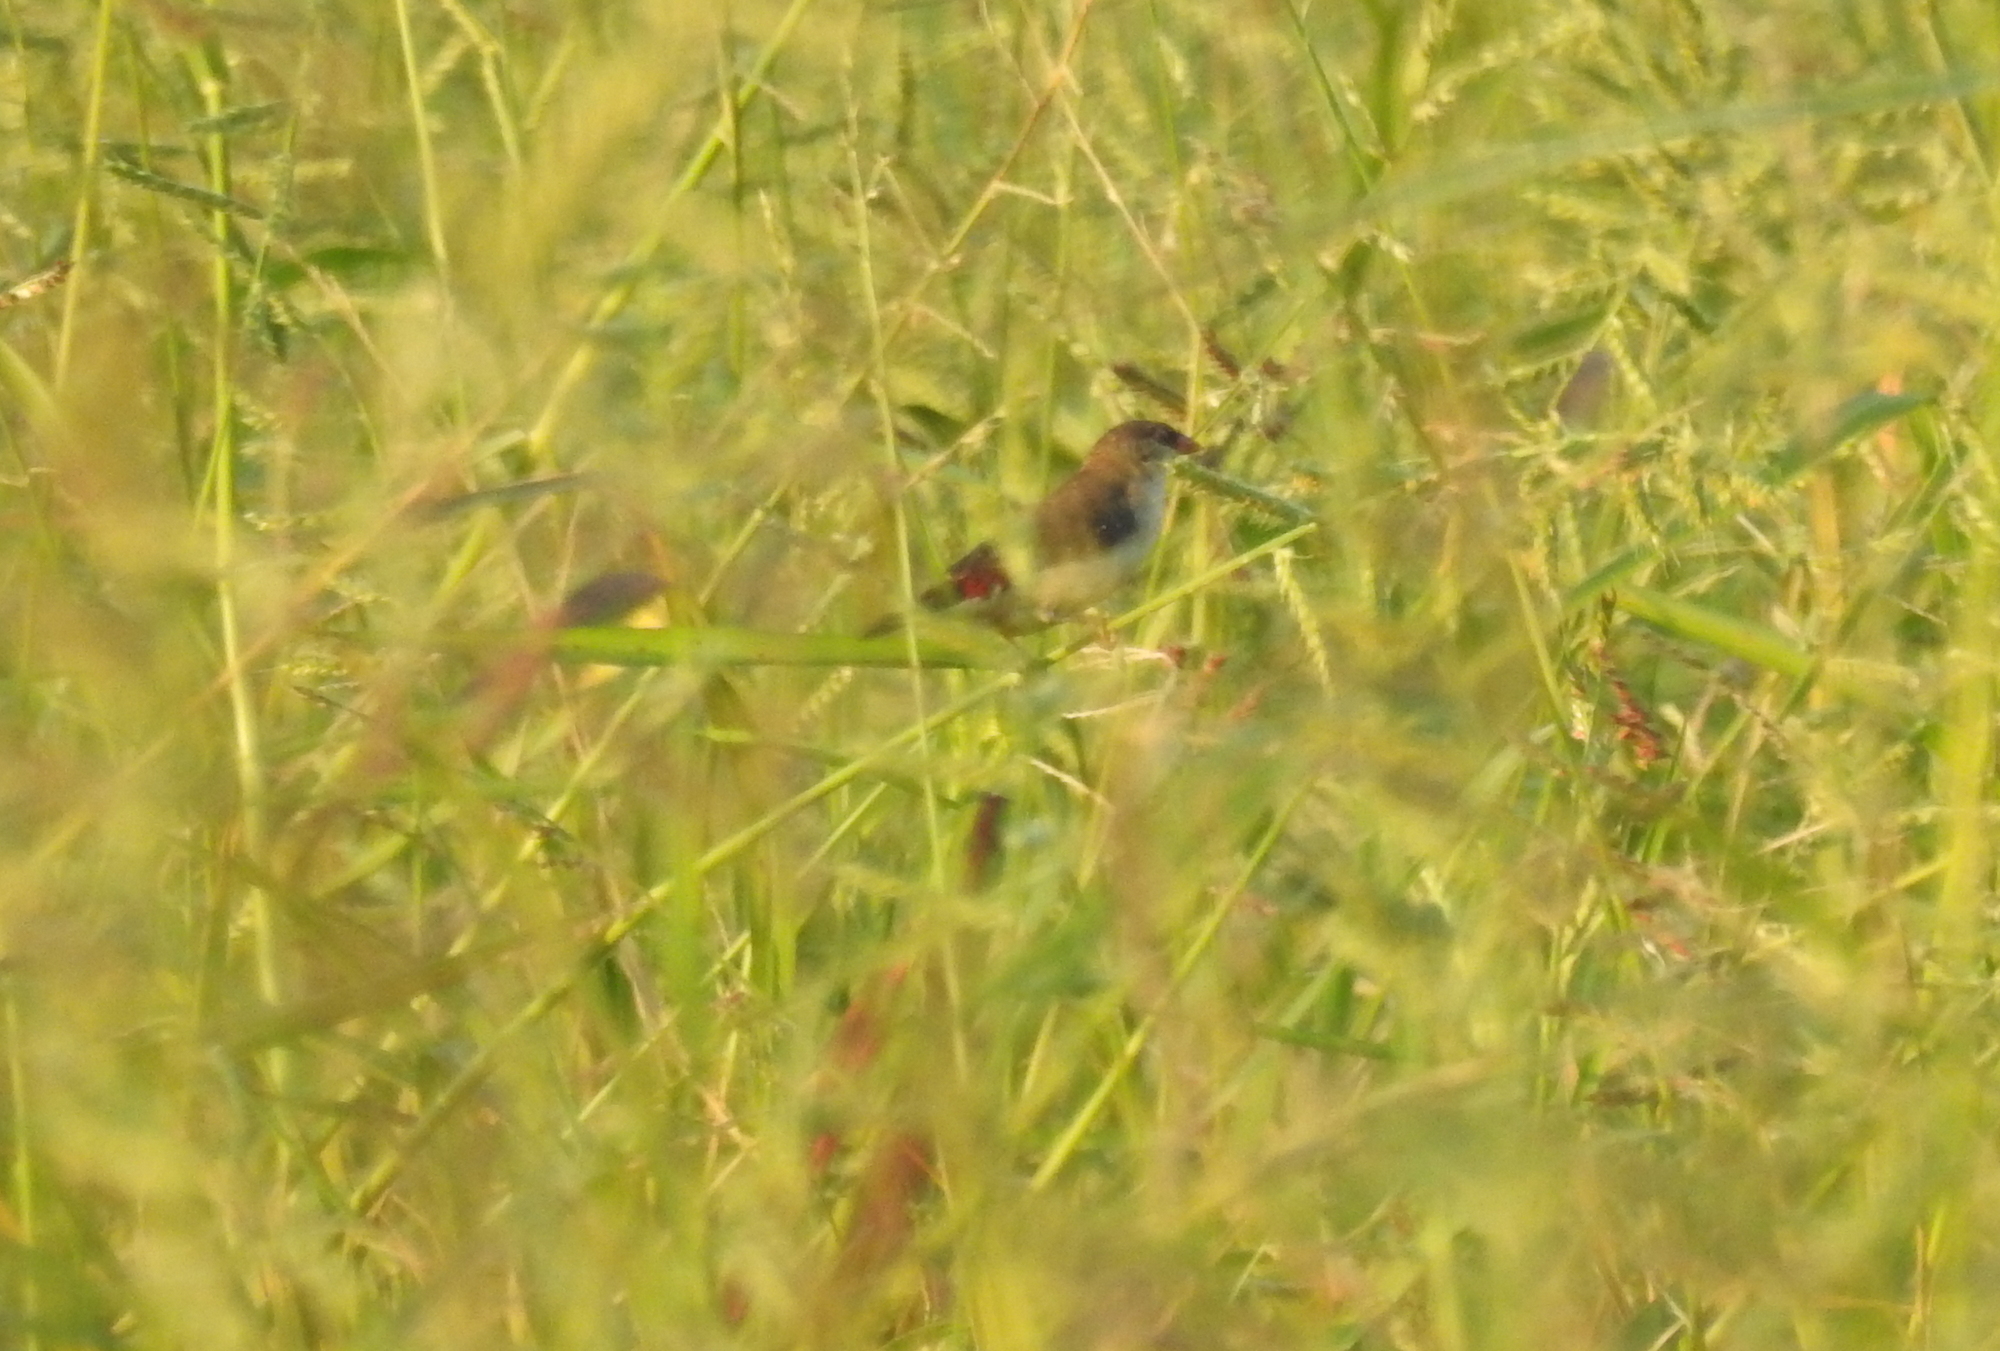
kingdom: Animalia
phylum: Chordata
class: Aves
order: Passeriformes
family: Estrildidae
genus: Amandava
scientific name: Amandava amandava
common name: Red avadavat
